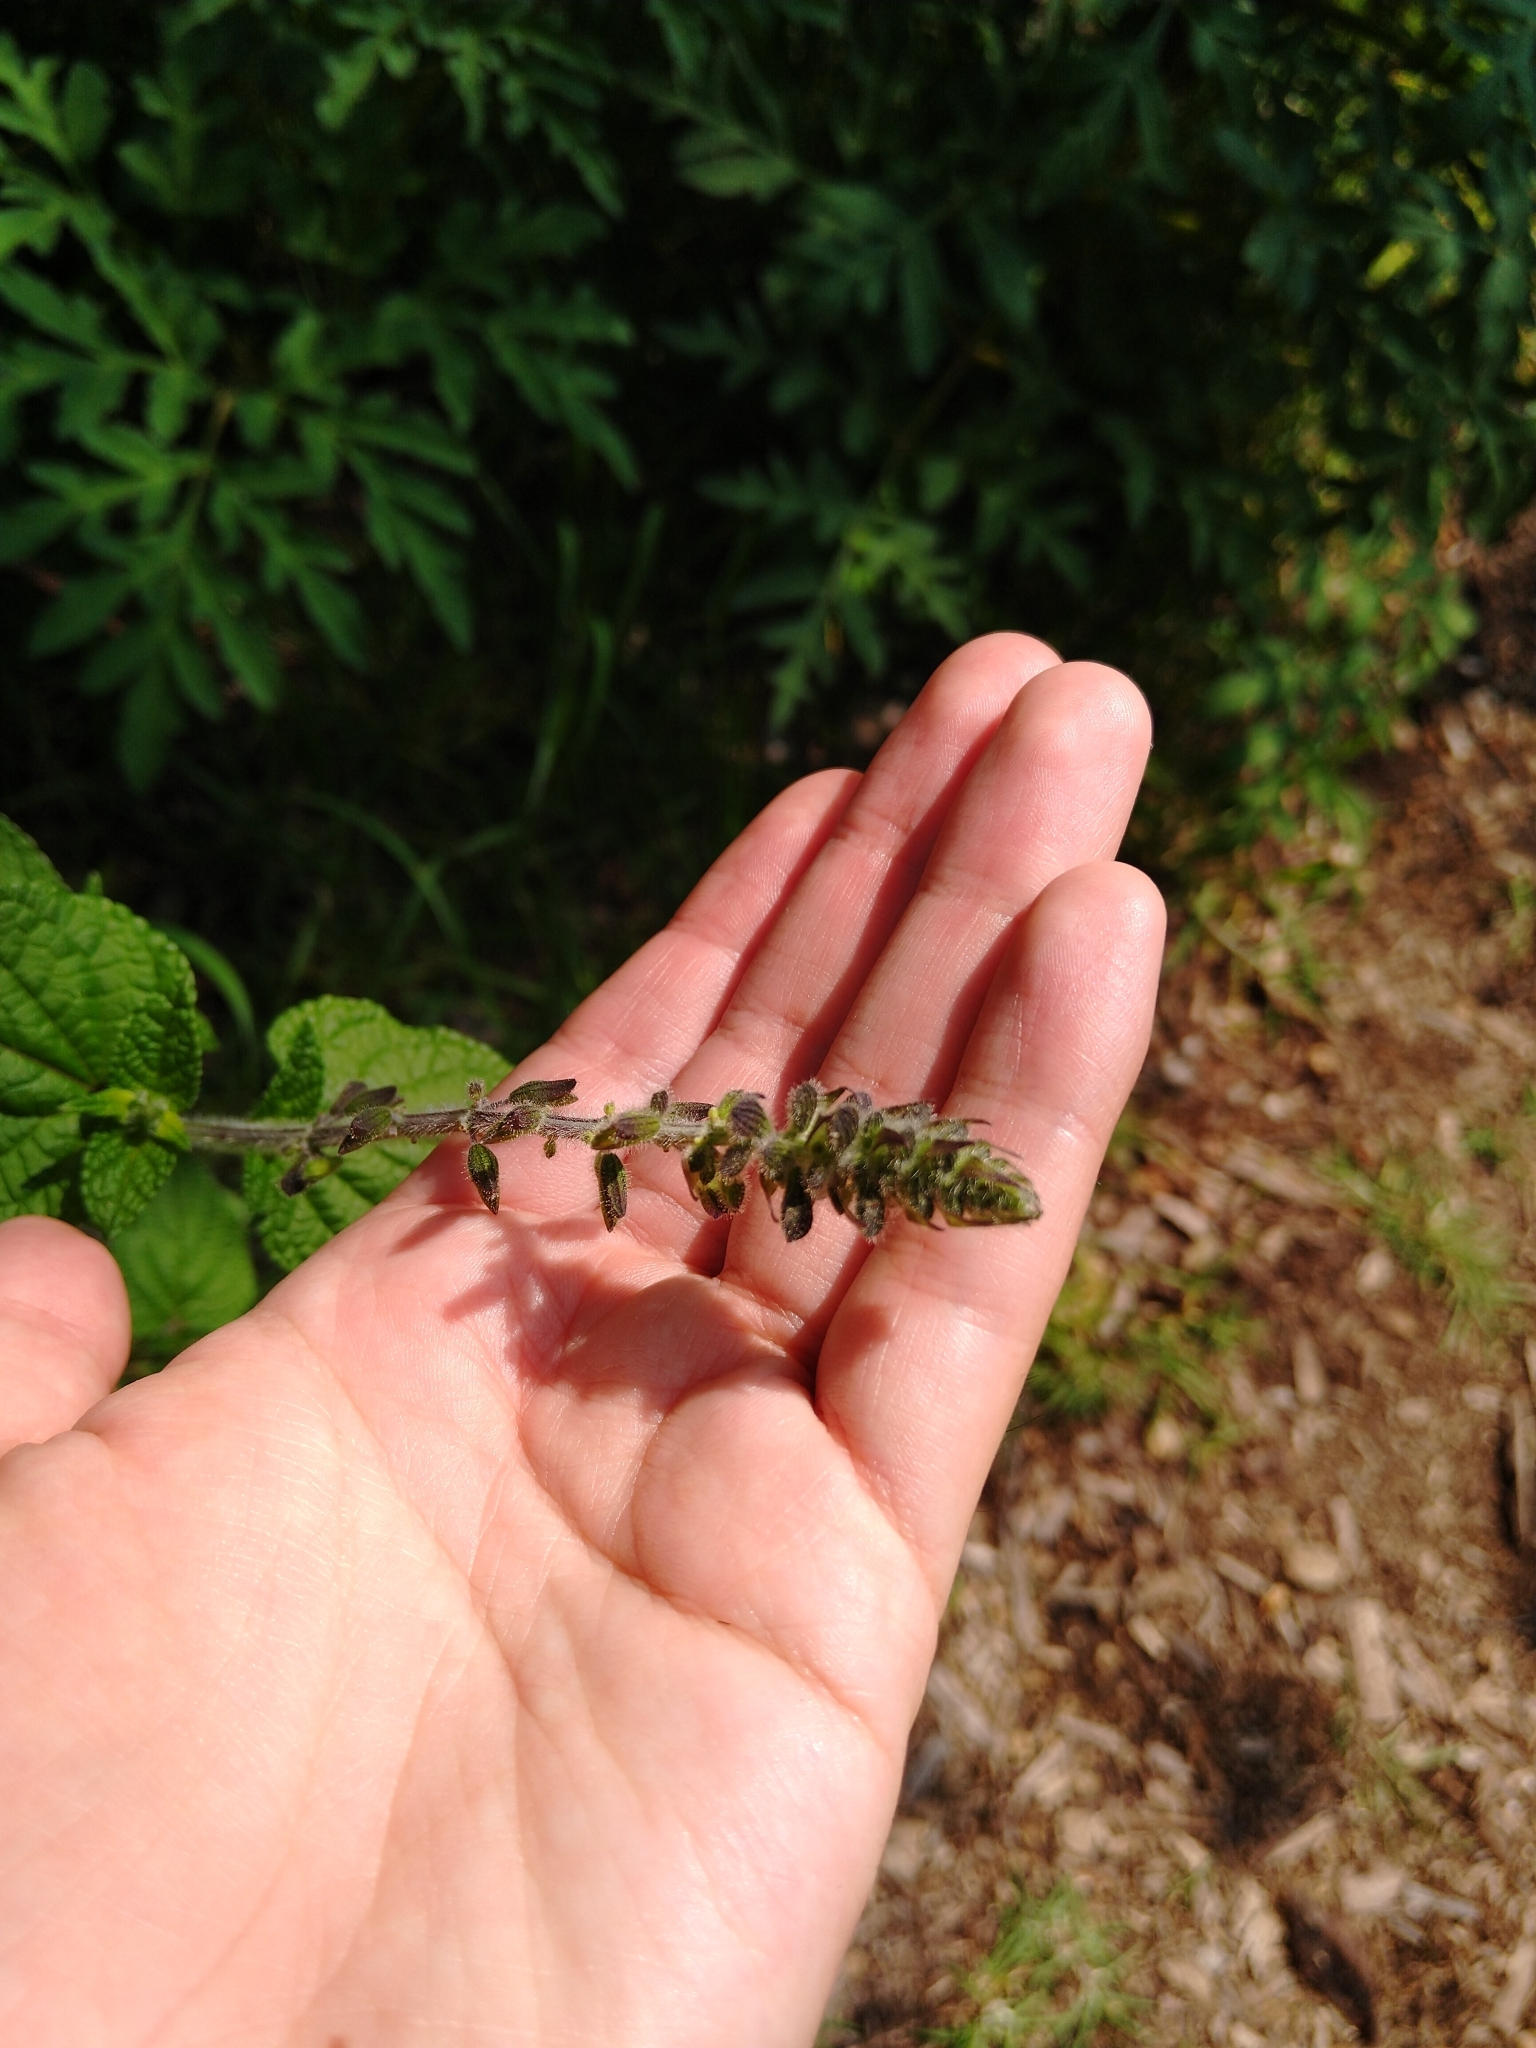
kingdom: Plantae
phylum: Tracheophyta
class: Magnoliopsida
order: Lamiales
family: Lamiaceae
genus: Salvia
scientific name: Salvia circinnata
